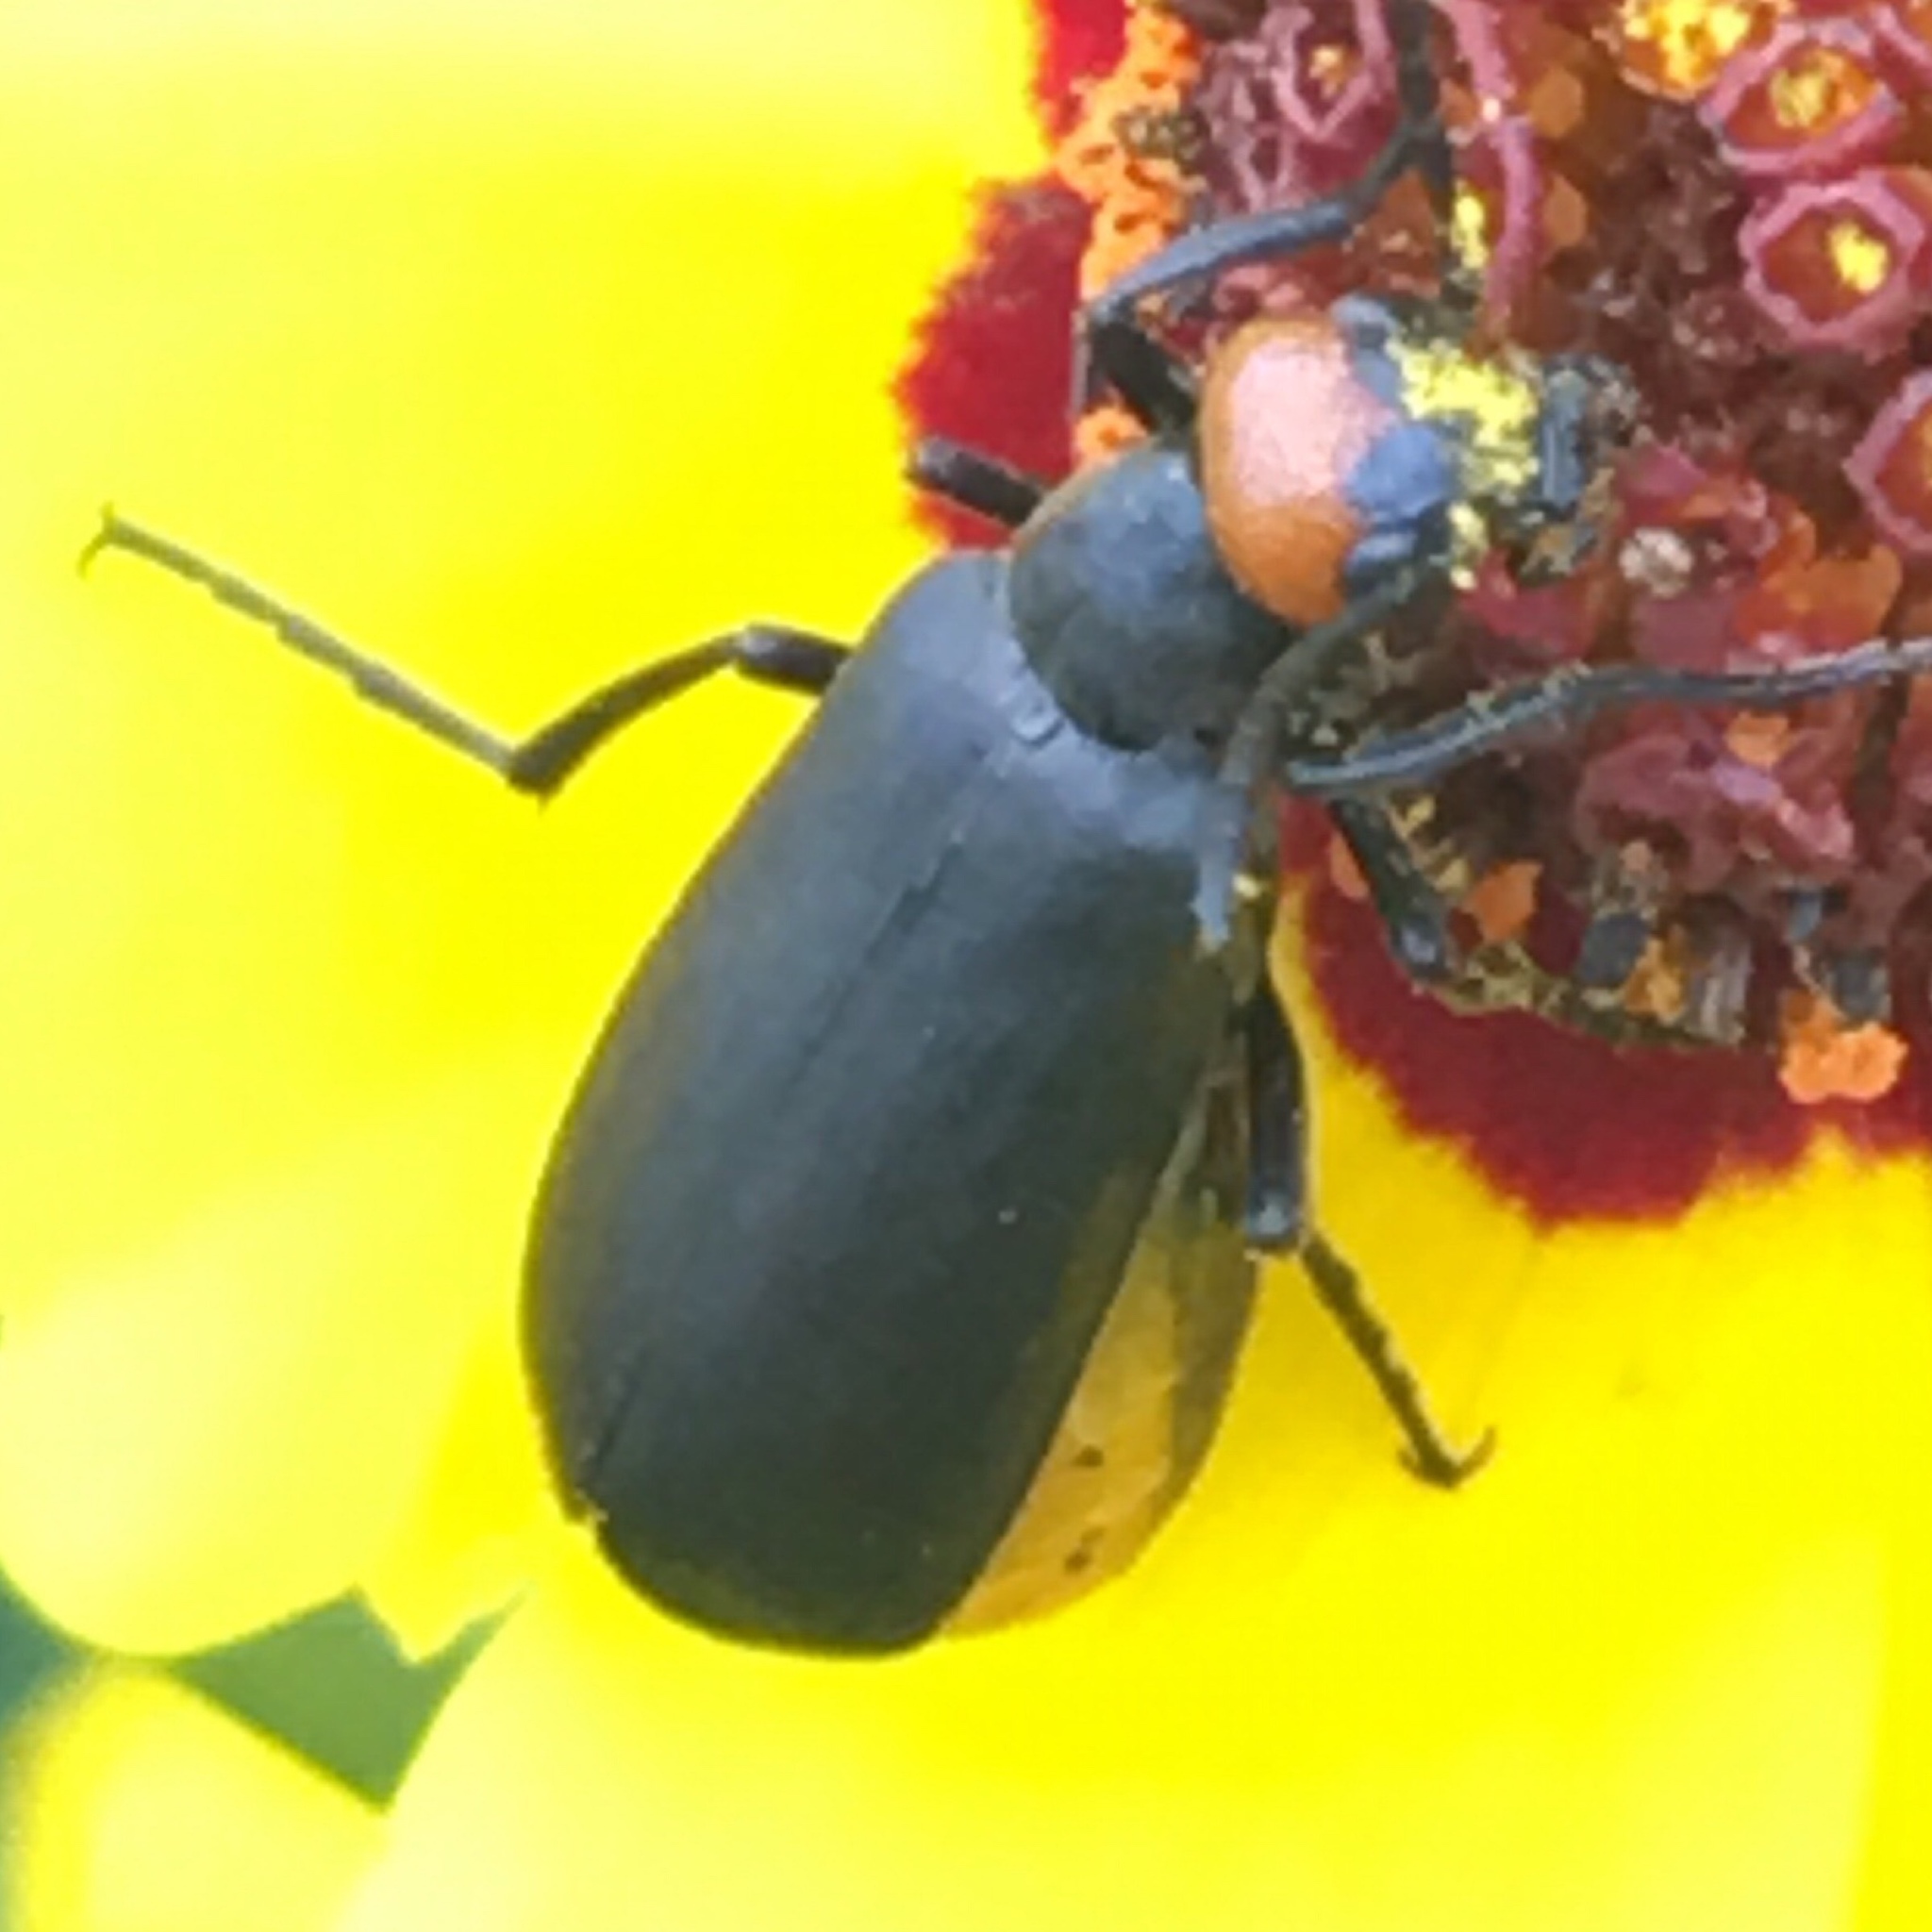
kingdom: Animalia
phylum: Arthropoda
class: Insecta
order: Coleoptera
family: Meloidae
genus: Epicauta
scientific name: Epicauta atrata
